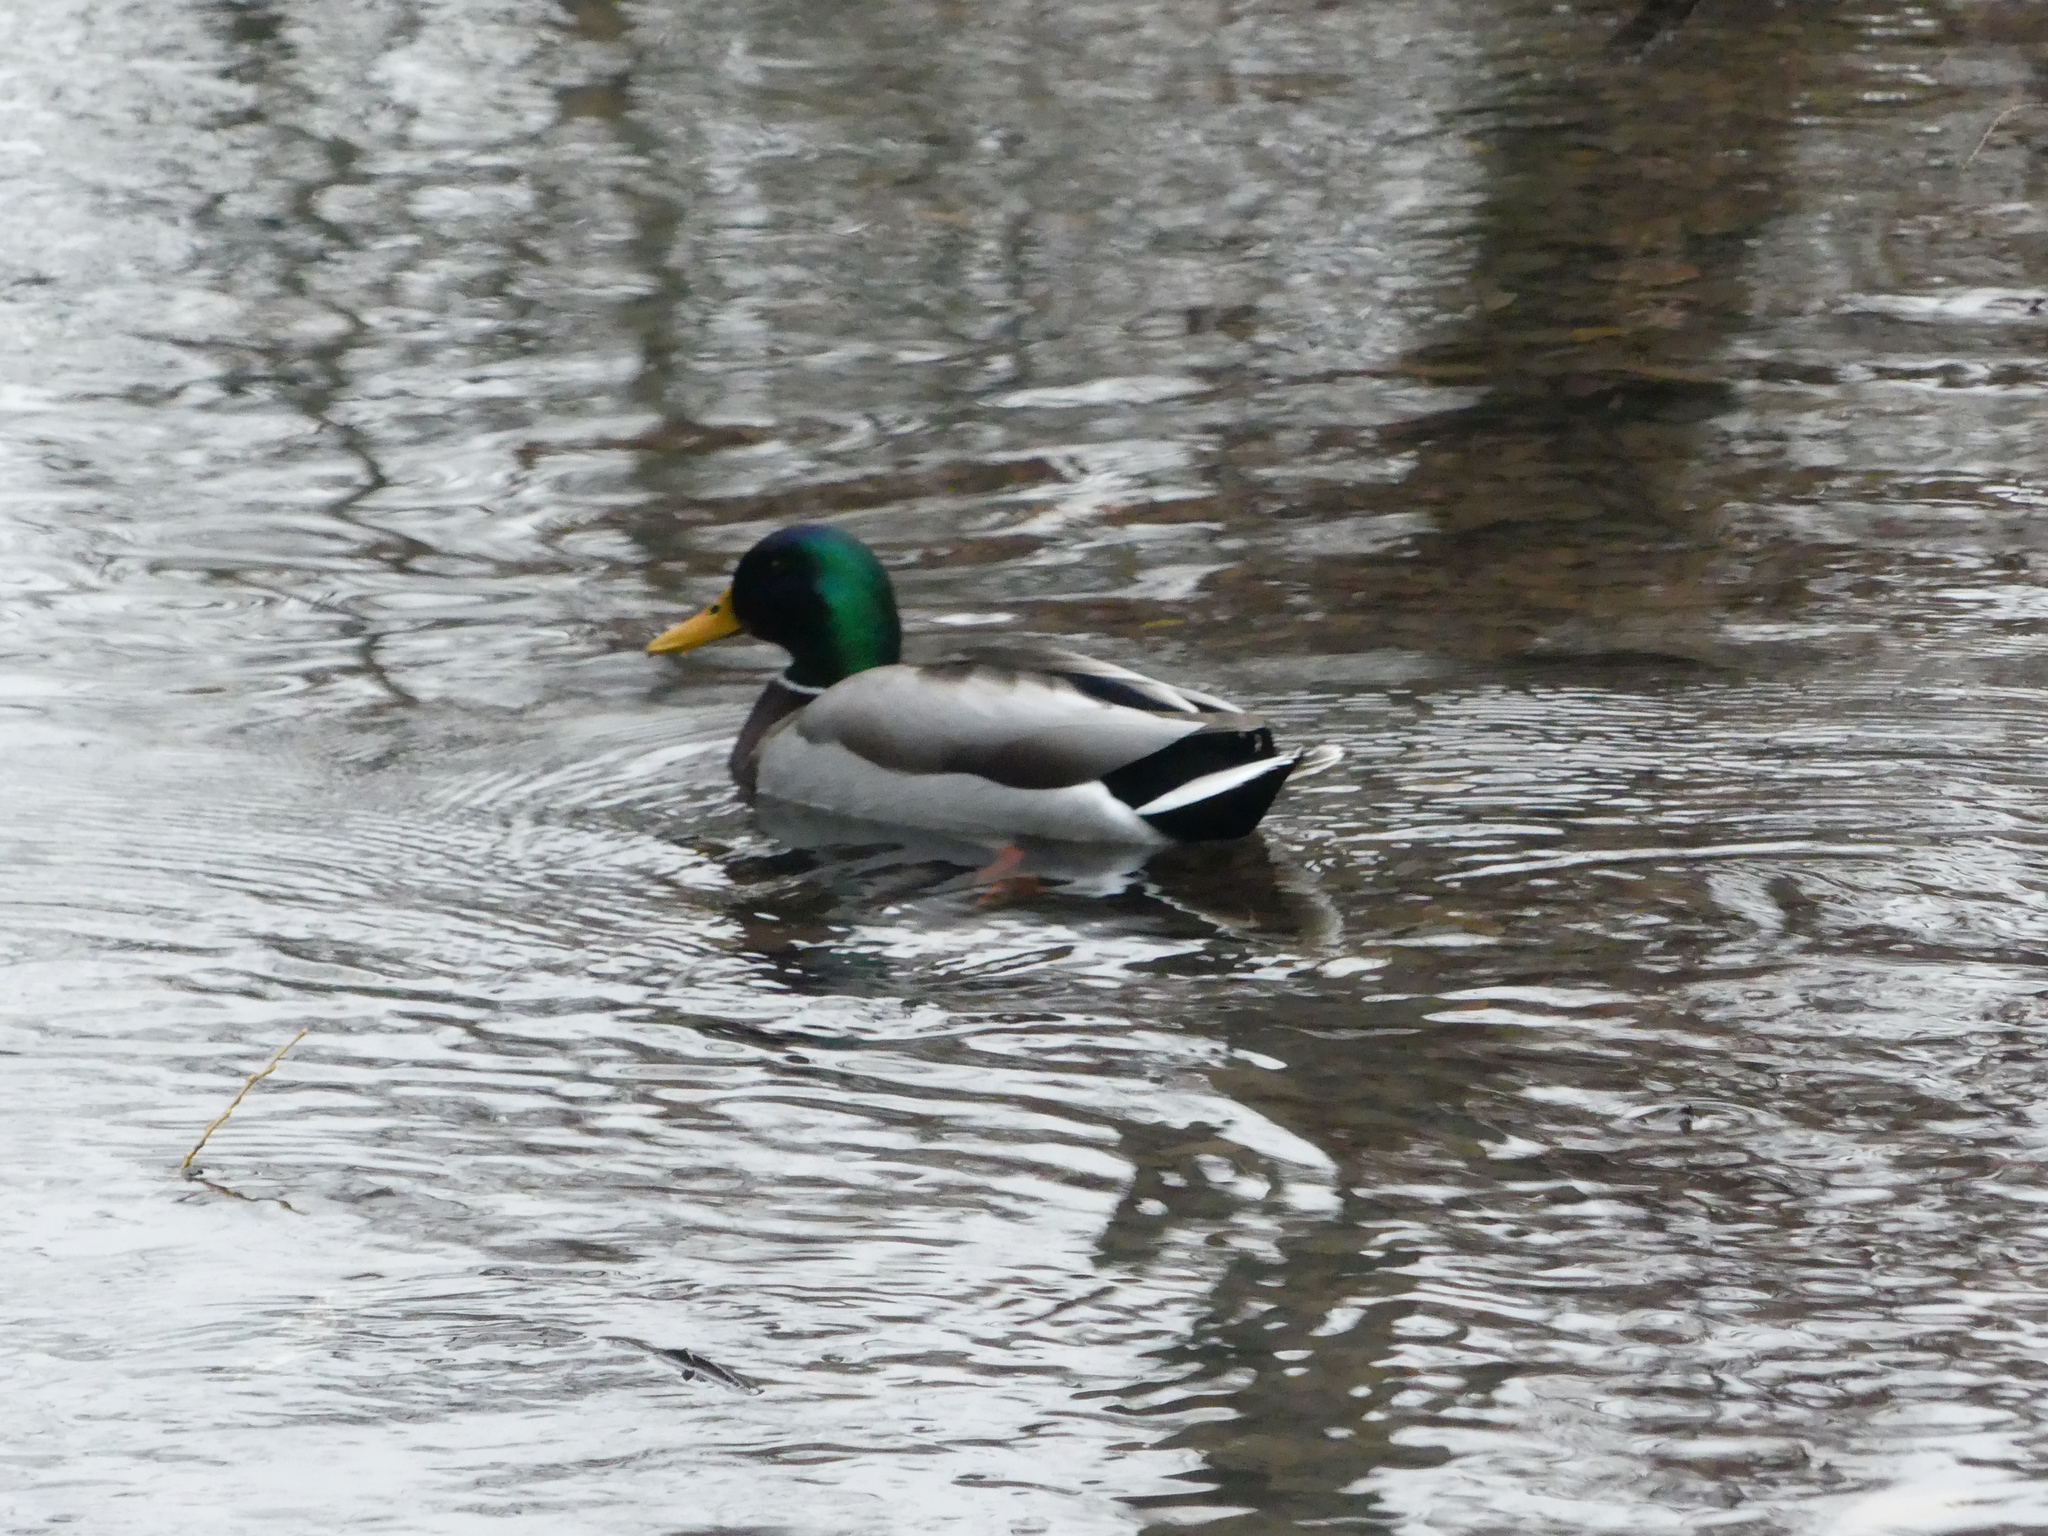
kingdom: Animalia
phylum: Chordata
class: Aves
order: Anseriformes
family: Anatidae
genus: Anas
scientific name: Anas platyrhynchos
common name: Mallard
